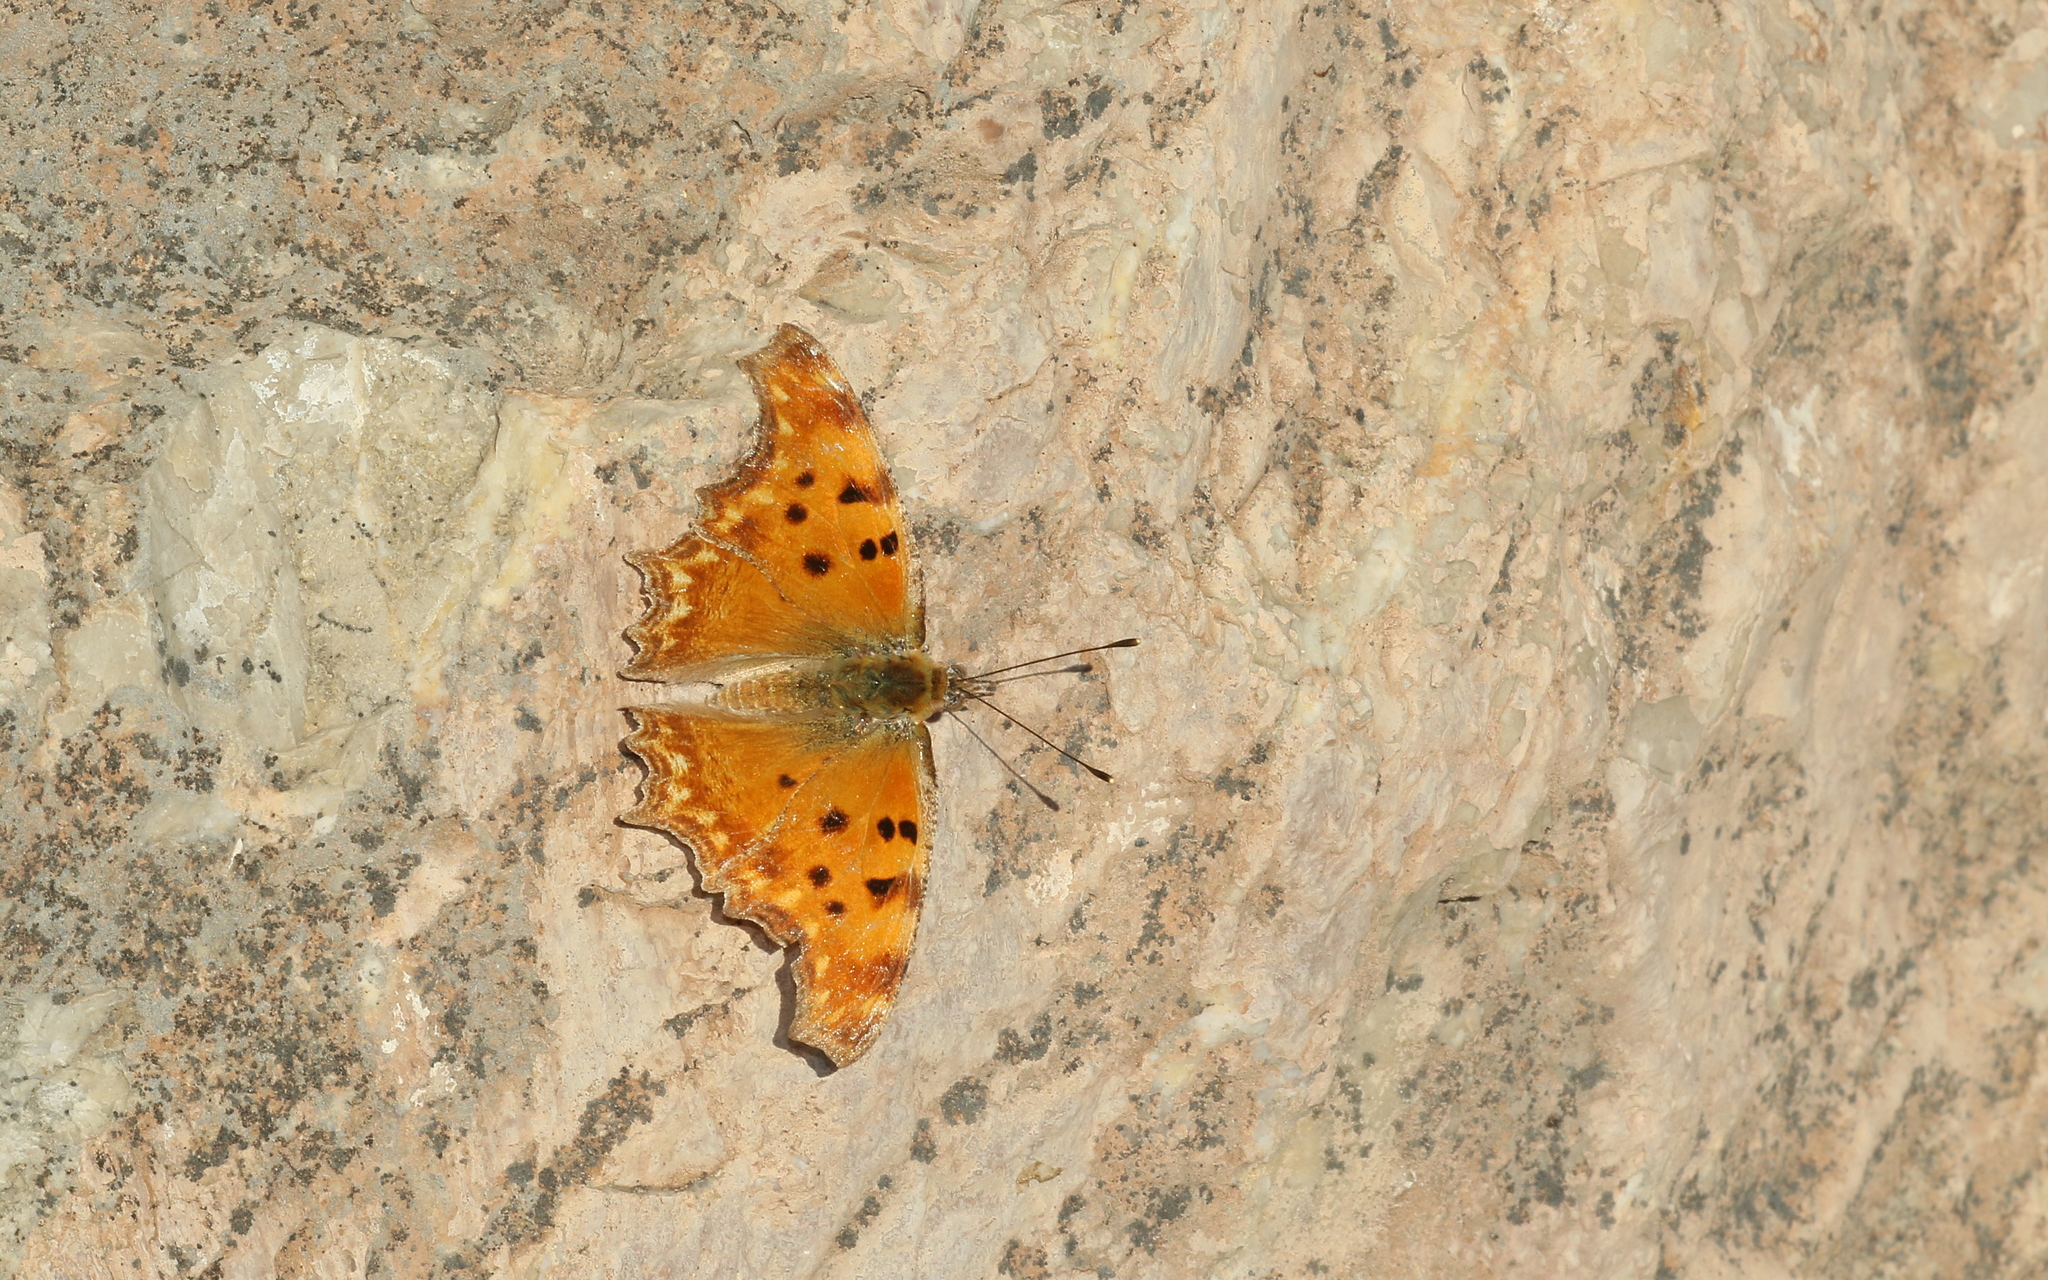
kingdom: Animalia
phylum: Arthropoda
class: Insecta
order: Lepidoptera
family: Nymphalidae
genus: Polygonia
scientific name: Polygonia egea
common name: Southern comma
